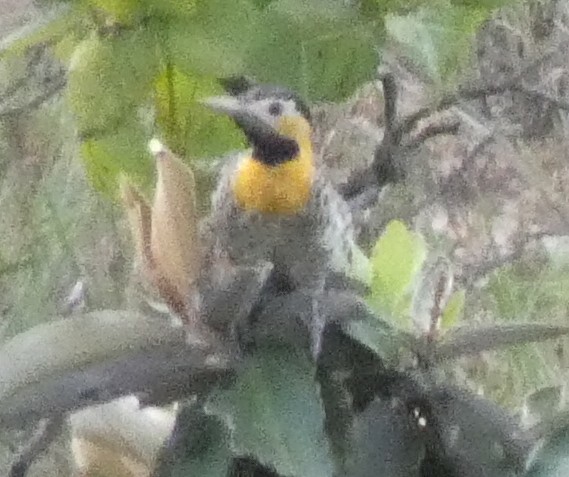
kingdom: Animalia
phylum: Chordata
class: Aves
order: Piciformes
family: Picidae
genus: Colaptes
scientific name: Colaptes campestris
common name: Campo flicker
